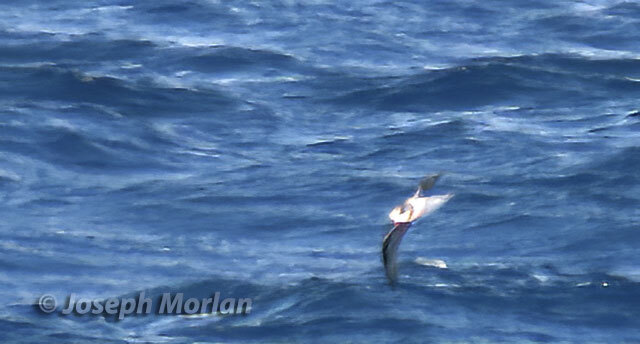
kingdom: Animalia
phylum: Chordata
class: Aves
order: Procellariiformes
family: Procellariidae
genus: Pterodroma
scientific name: Pterodroma mollis
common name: Soft-plumaged petrel
